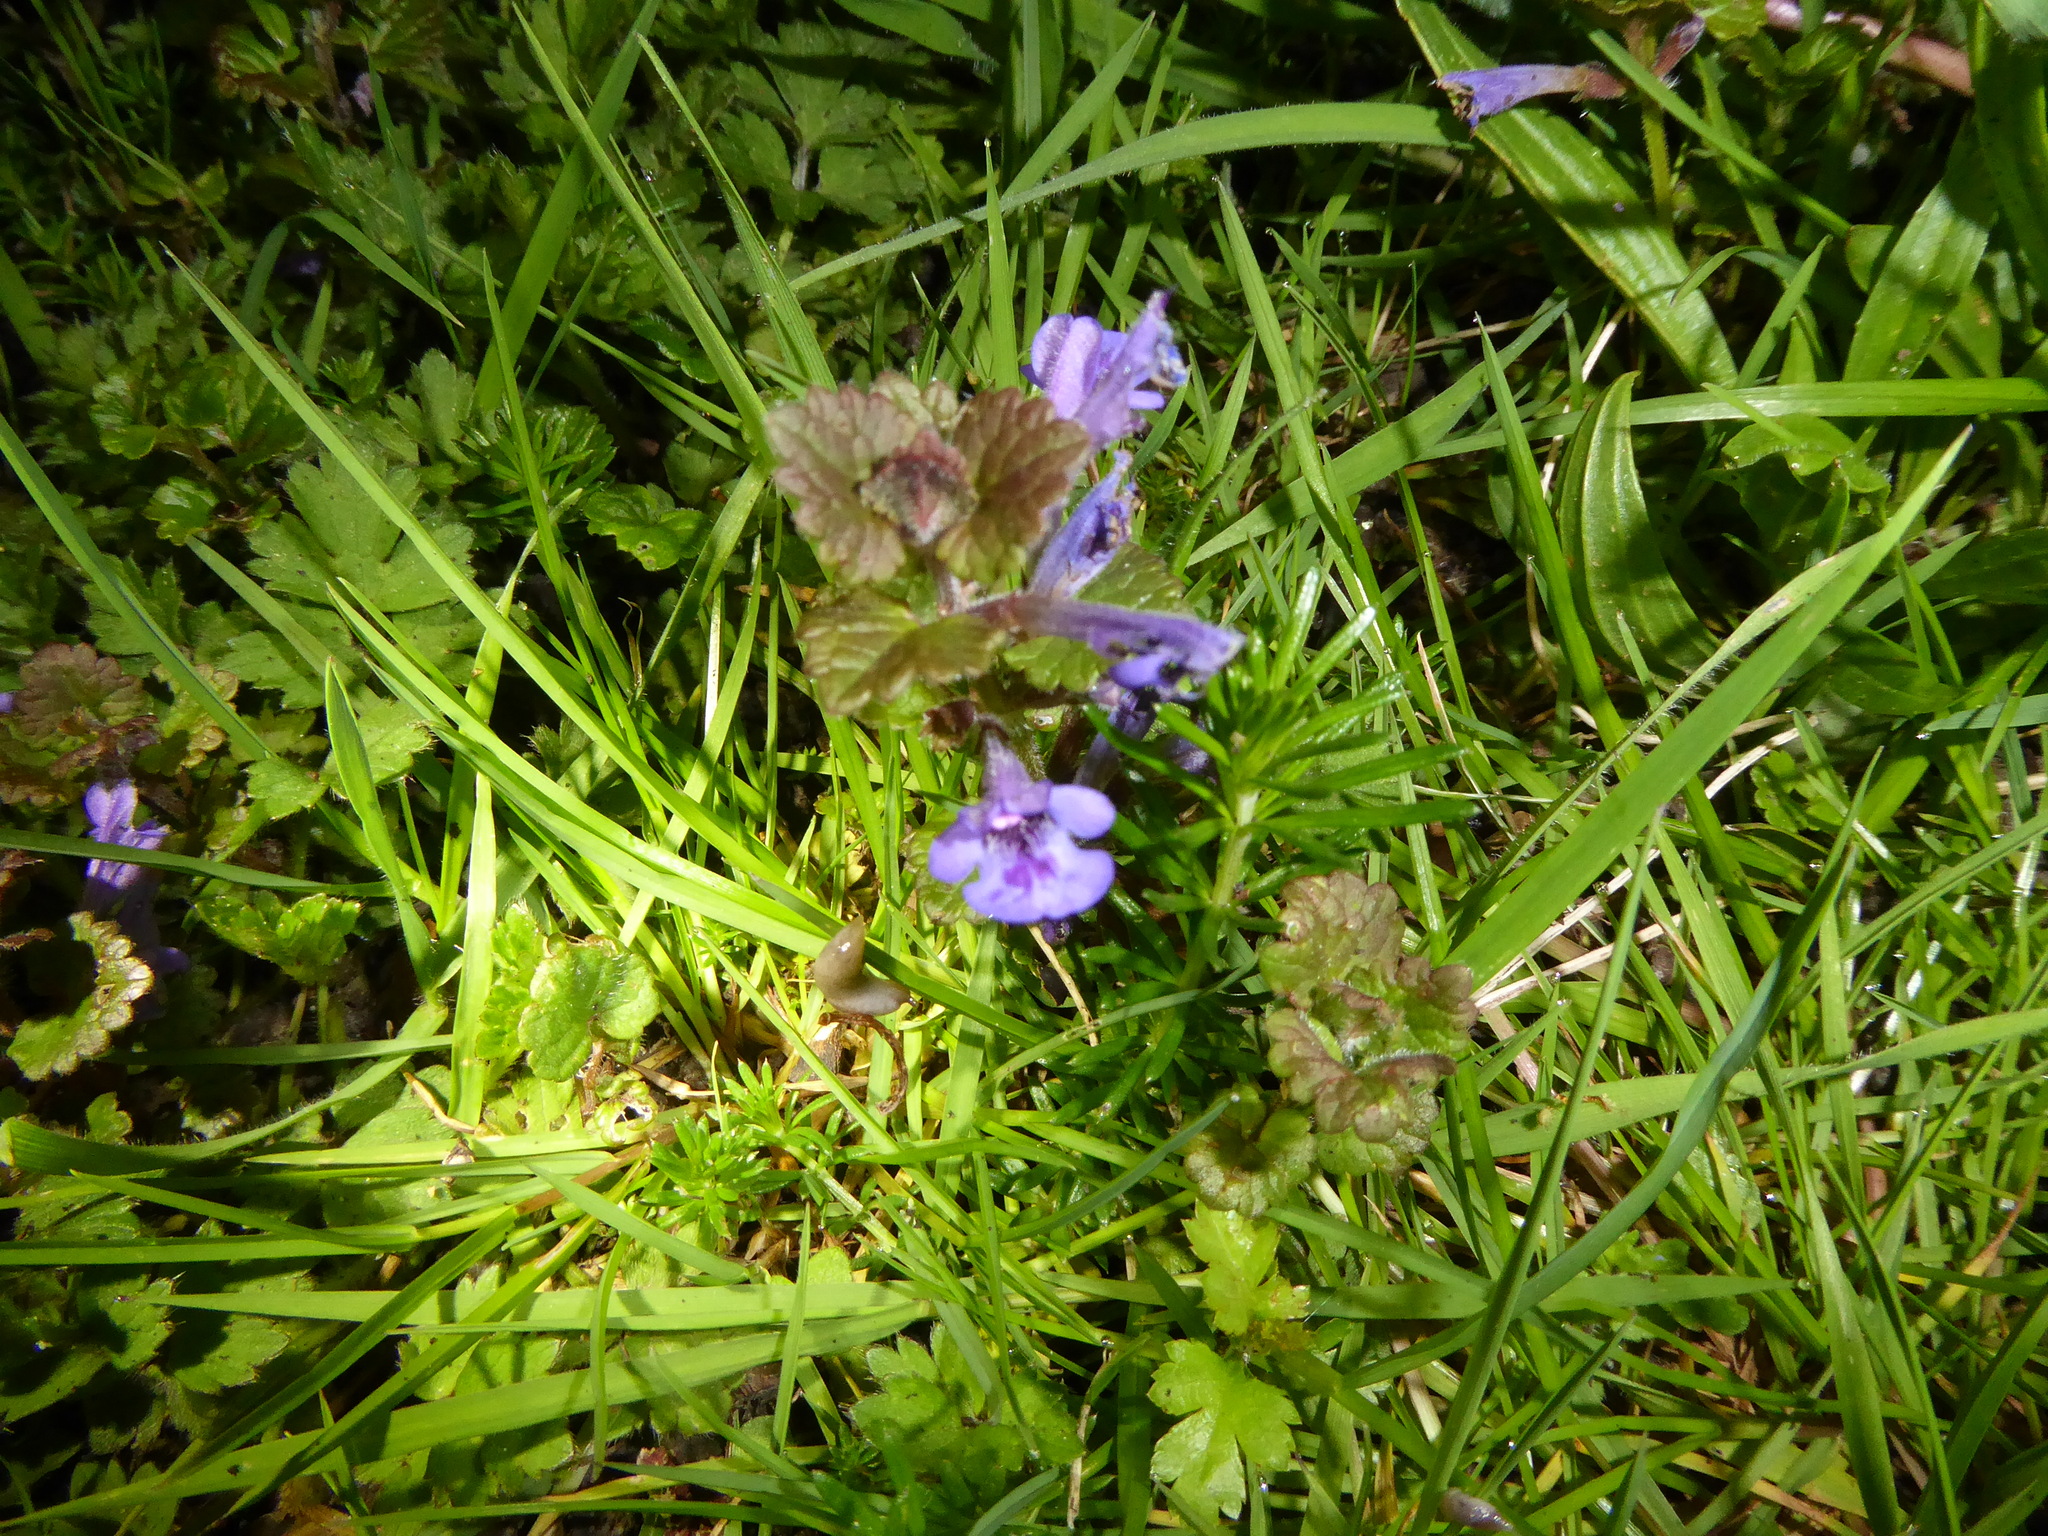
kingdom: Plantae
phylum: Tracheophyta
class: Magnoliopsida
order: Lamiales
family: Lamiaceae
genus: Glechoma
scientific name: Glechoma hederacea
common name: Ground ivy
